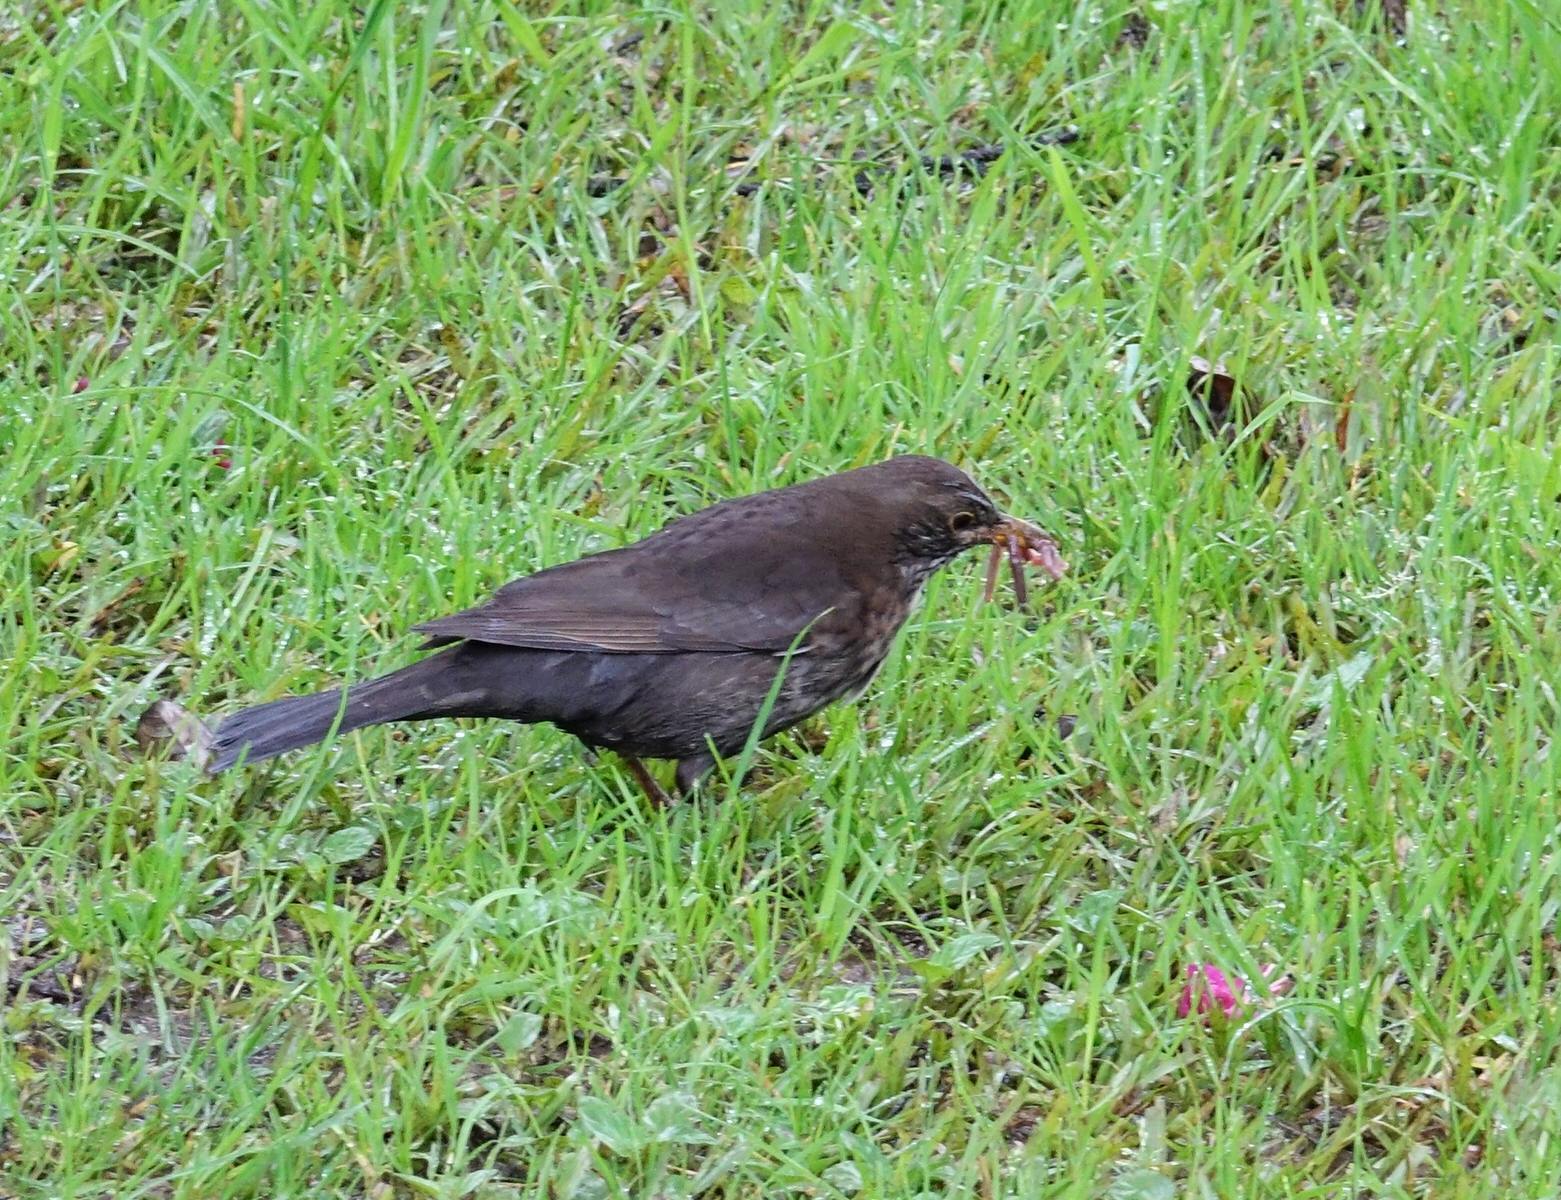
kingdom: Animalia
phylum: Chordata
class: Aves
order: Passeriformes
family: Turdidae
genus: Turdus
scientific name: Turdus merula
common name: Common blackbird
